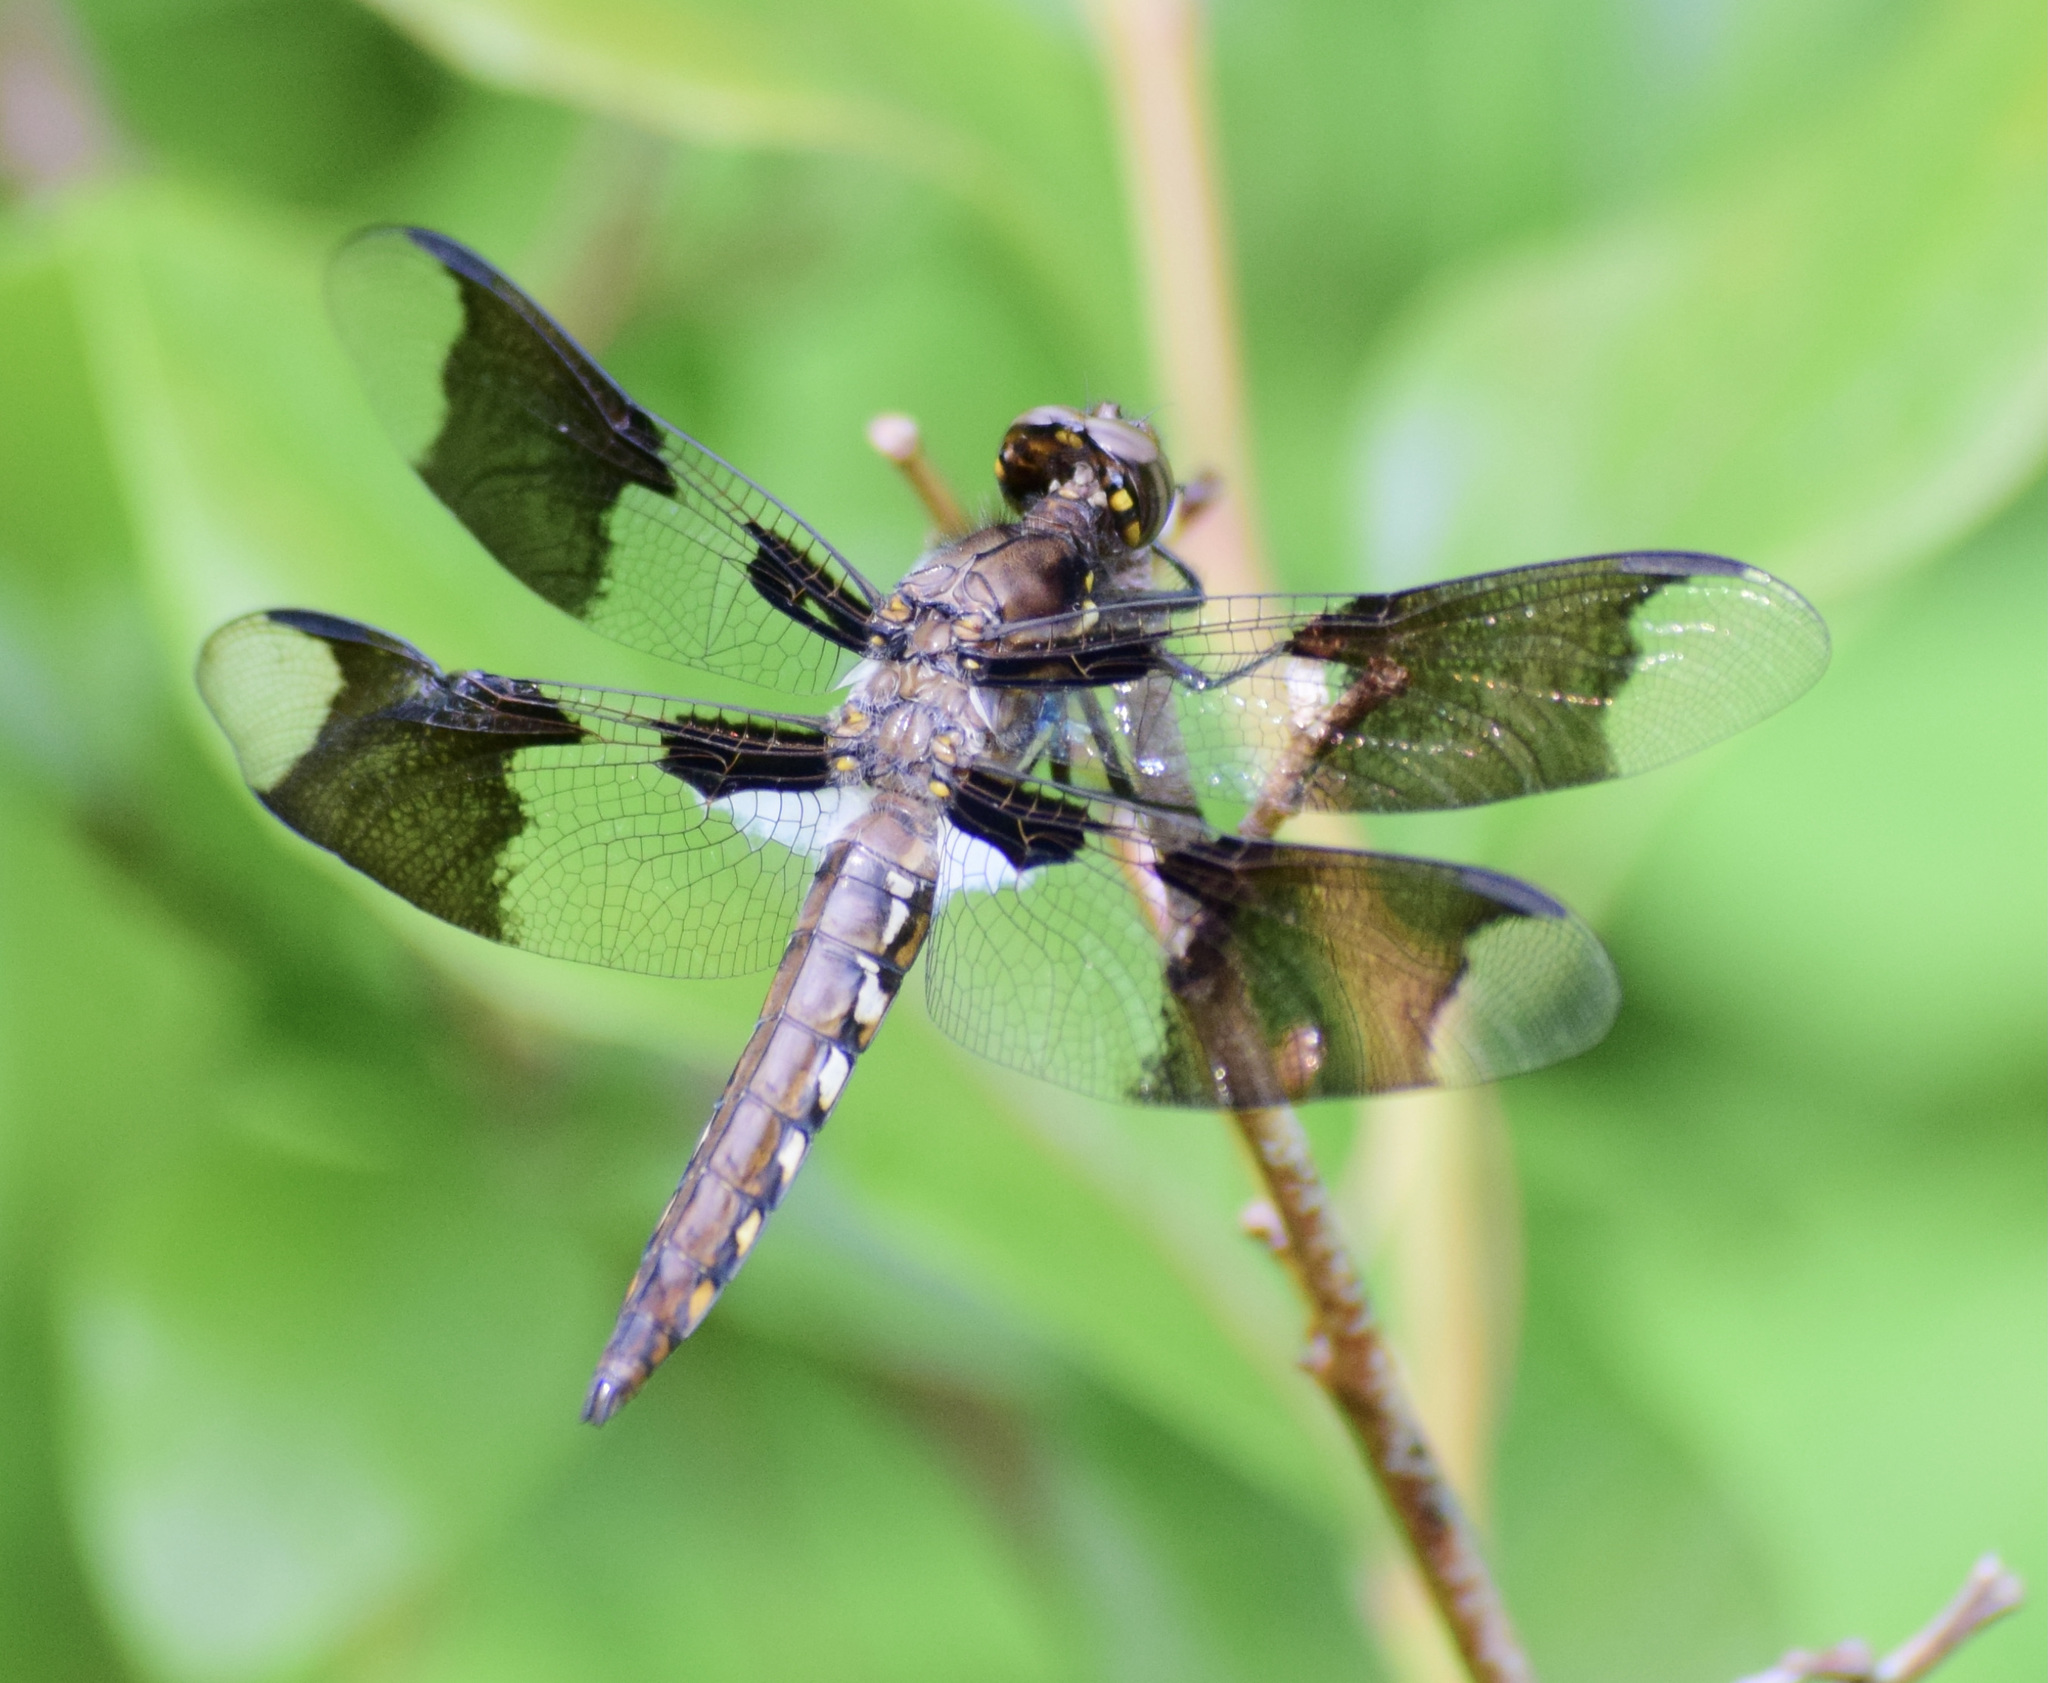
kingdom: Animalia
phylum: Arthropoda
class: Insecta
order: Odonata
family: Libellulidae
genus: Plathemis
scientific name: Plathemis lydia
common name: Common whitetail
